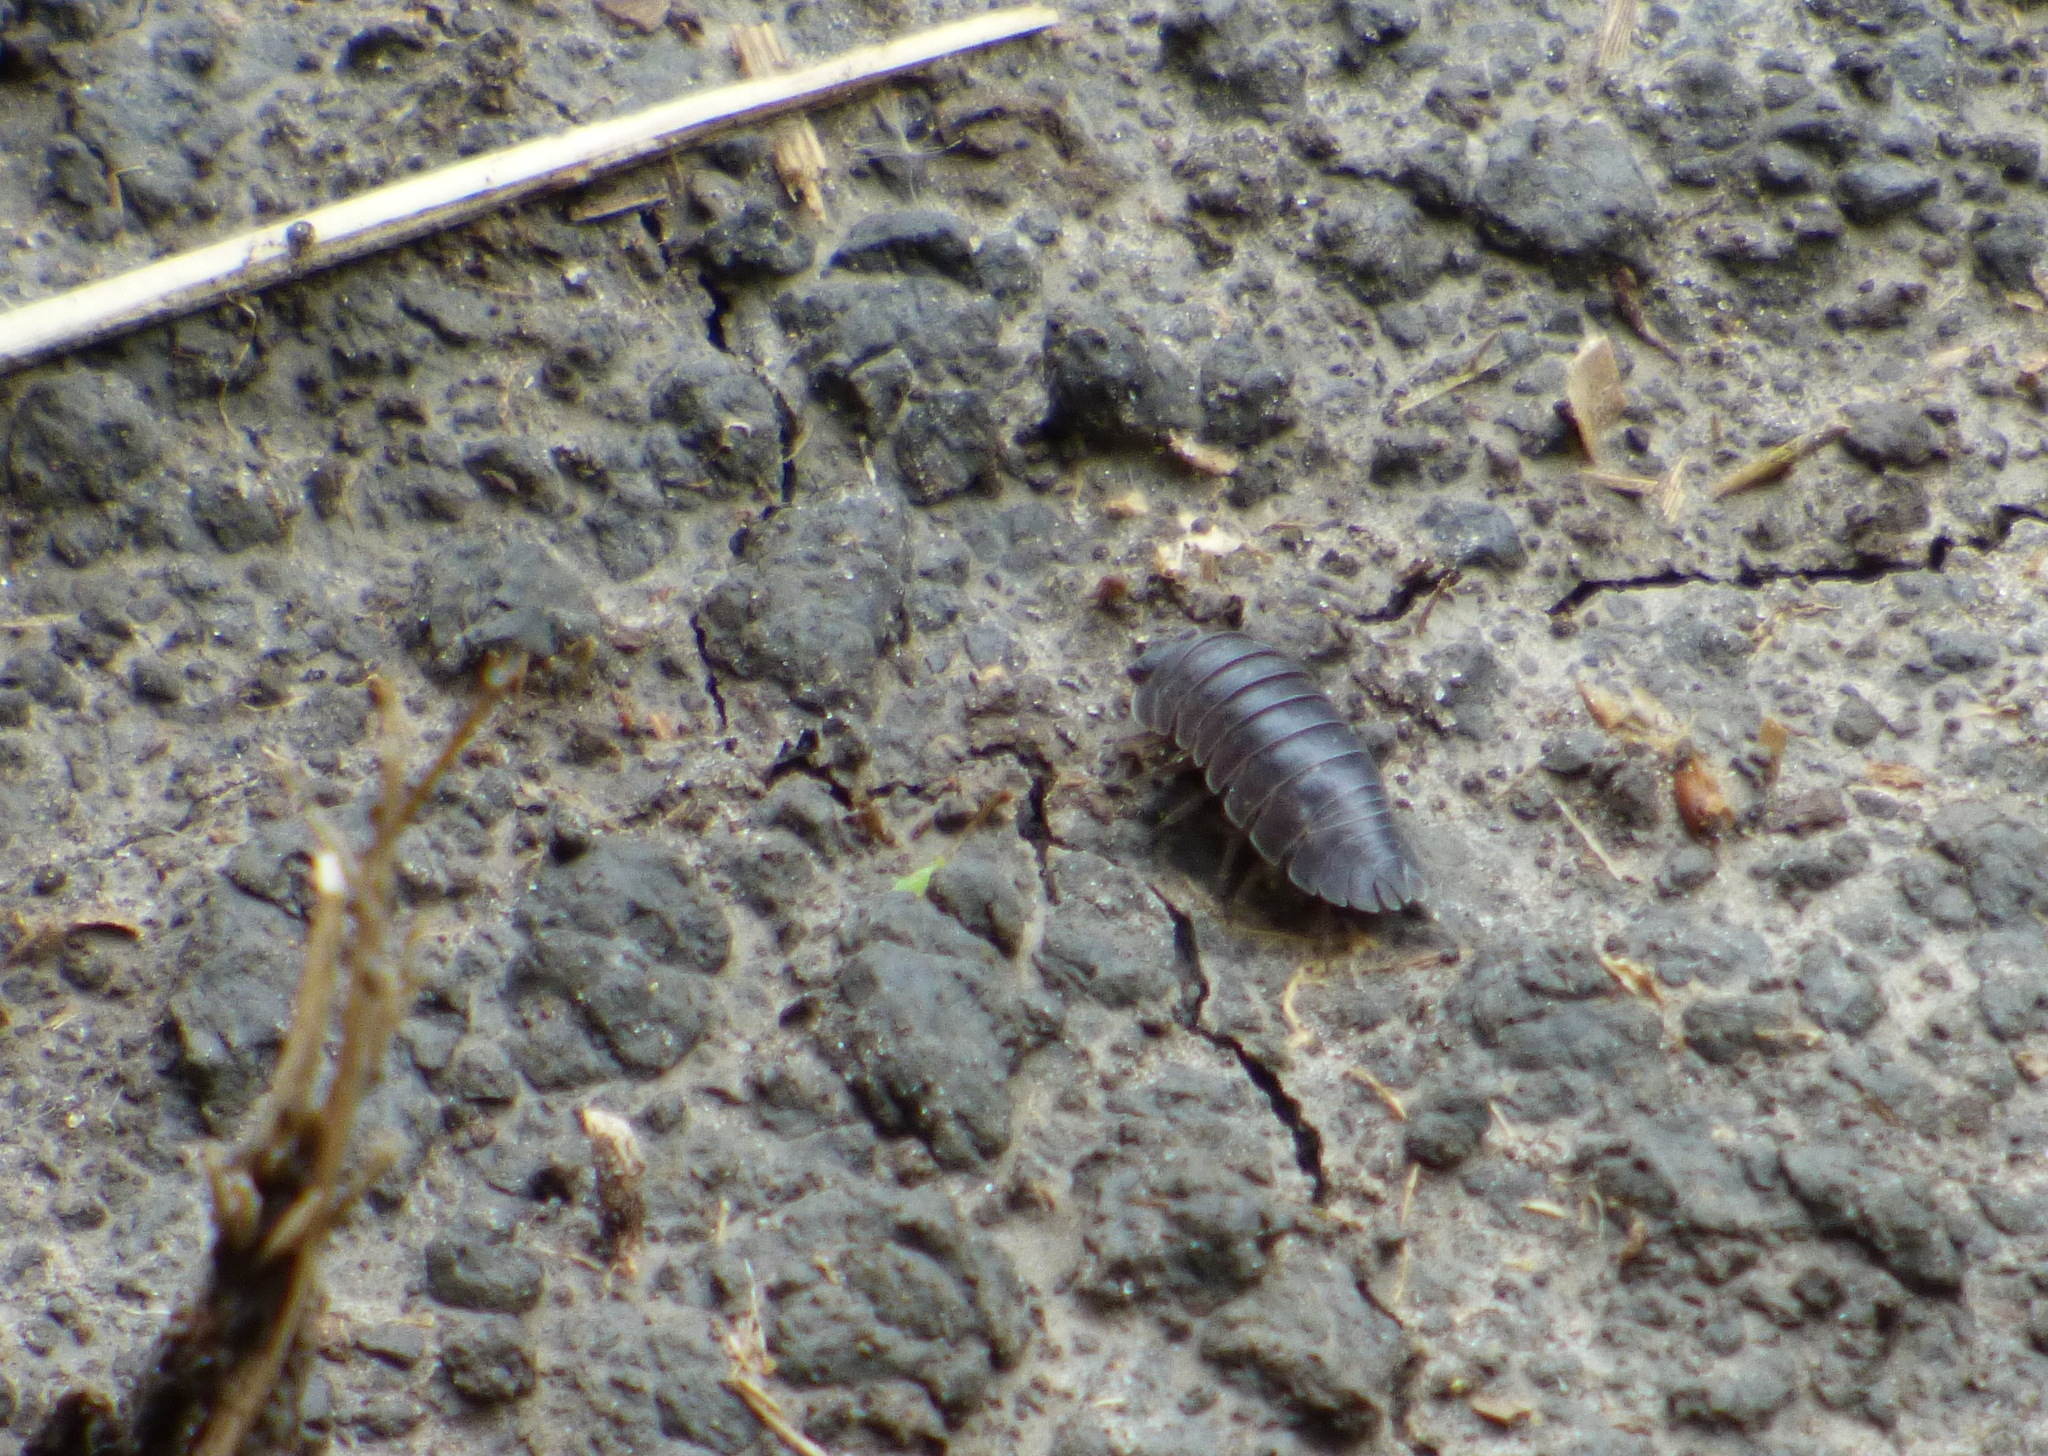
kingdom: Animalia
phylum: Arthropoda
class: Malacostraca
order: Isopoda
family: Armadillidiidae
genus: Armadillidium
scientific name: Armadillidium nasatum
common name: Isopod
